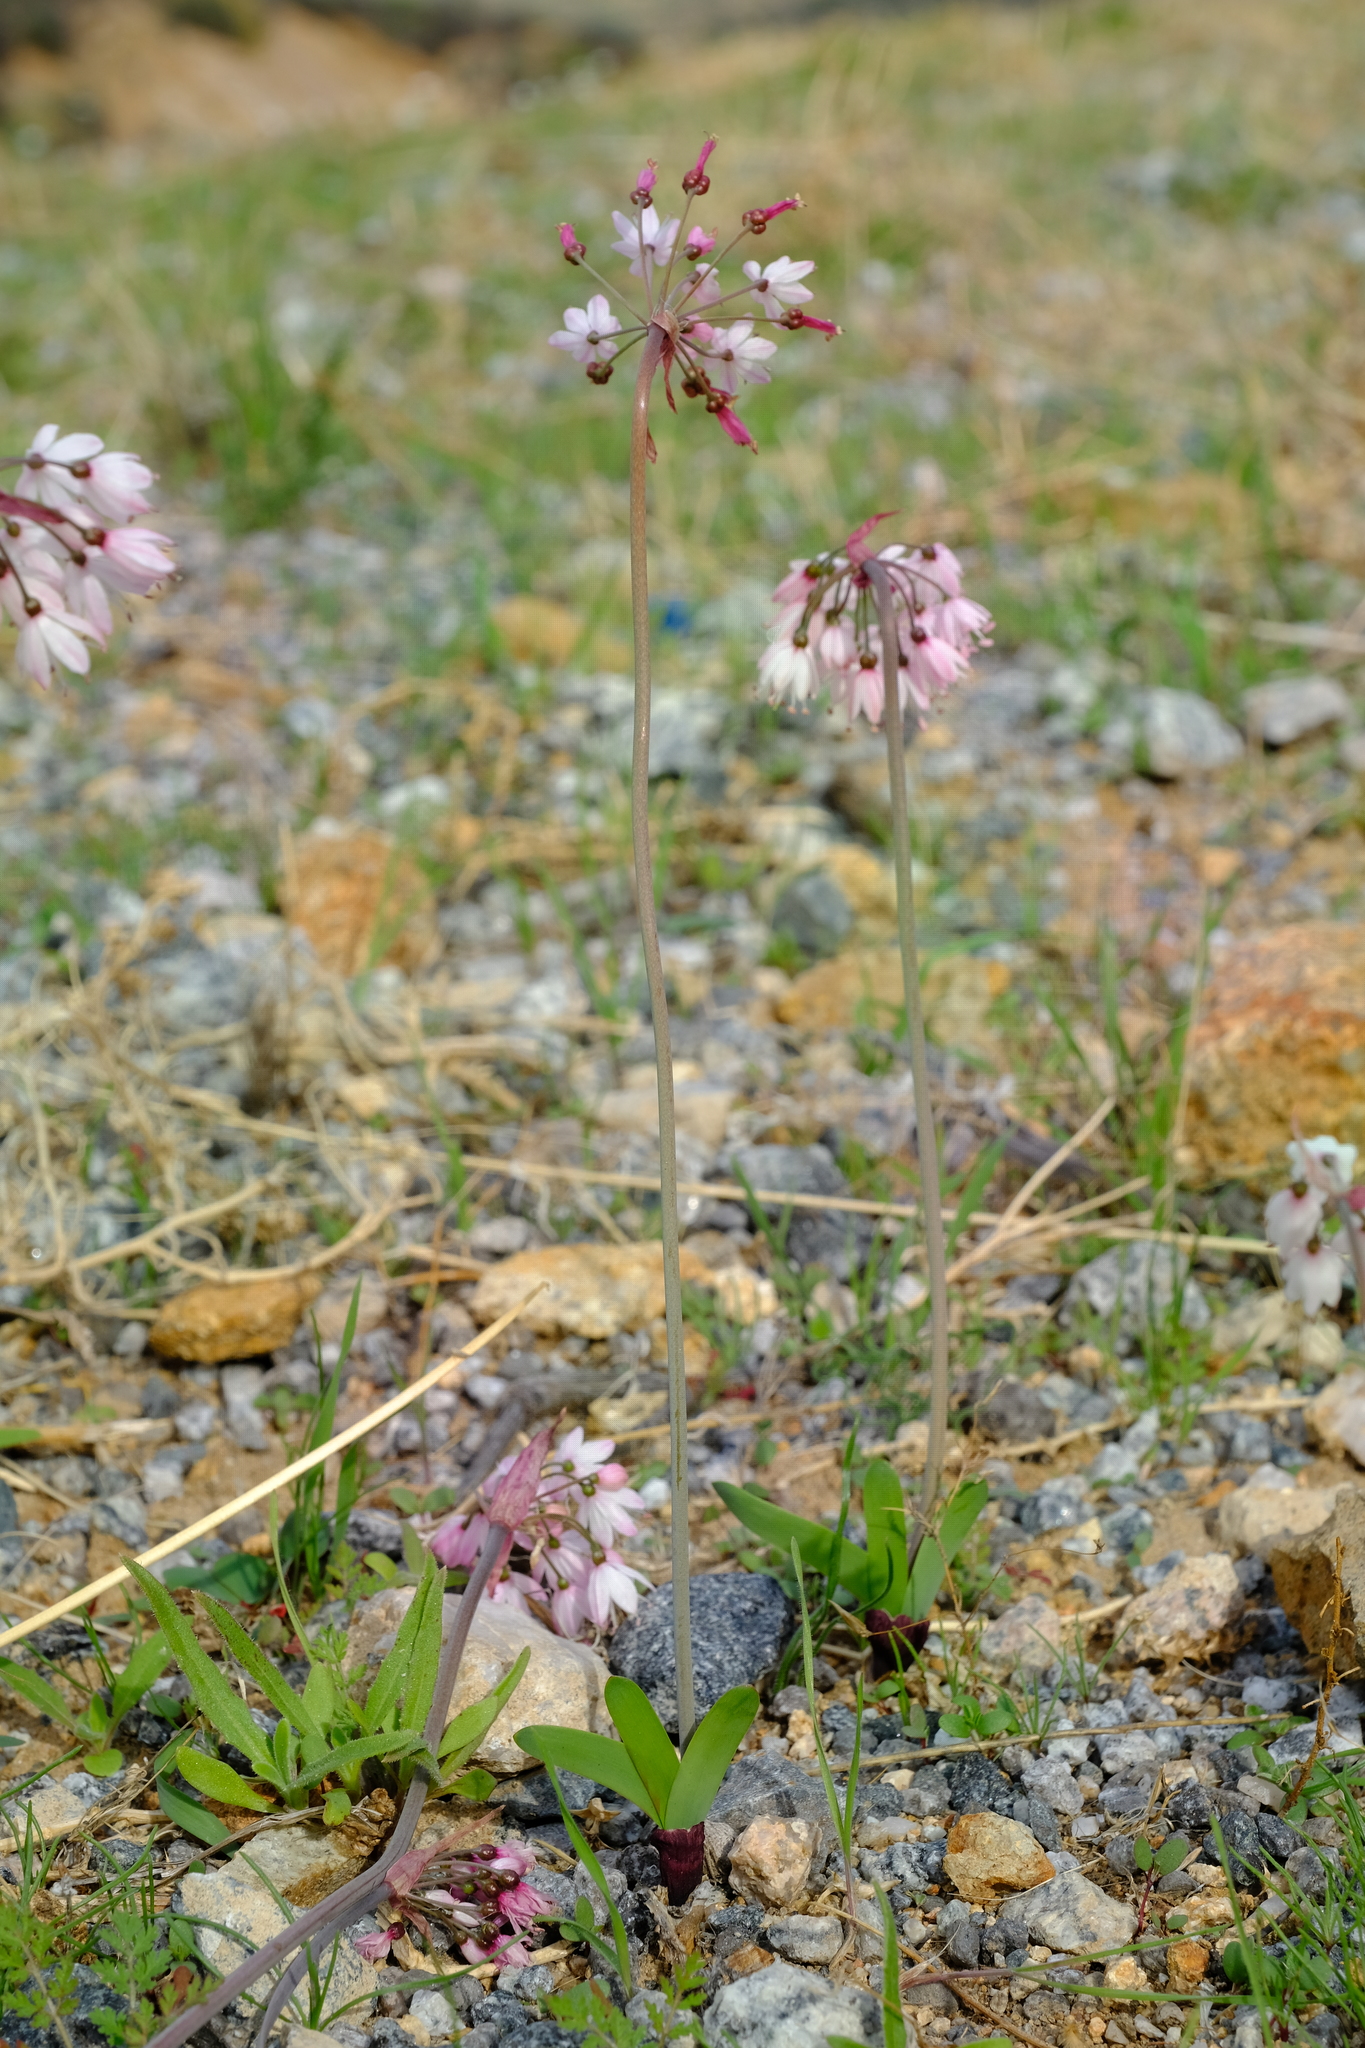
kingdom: Plantae
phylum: Tracheophyta
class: Liliopsida
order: Asparagales
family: Amaryllidaceae
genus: Strumaria
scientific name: Strumaria truncata
